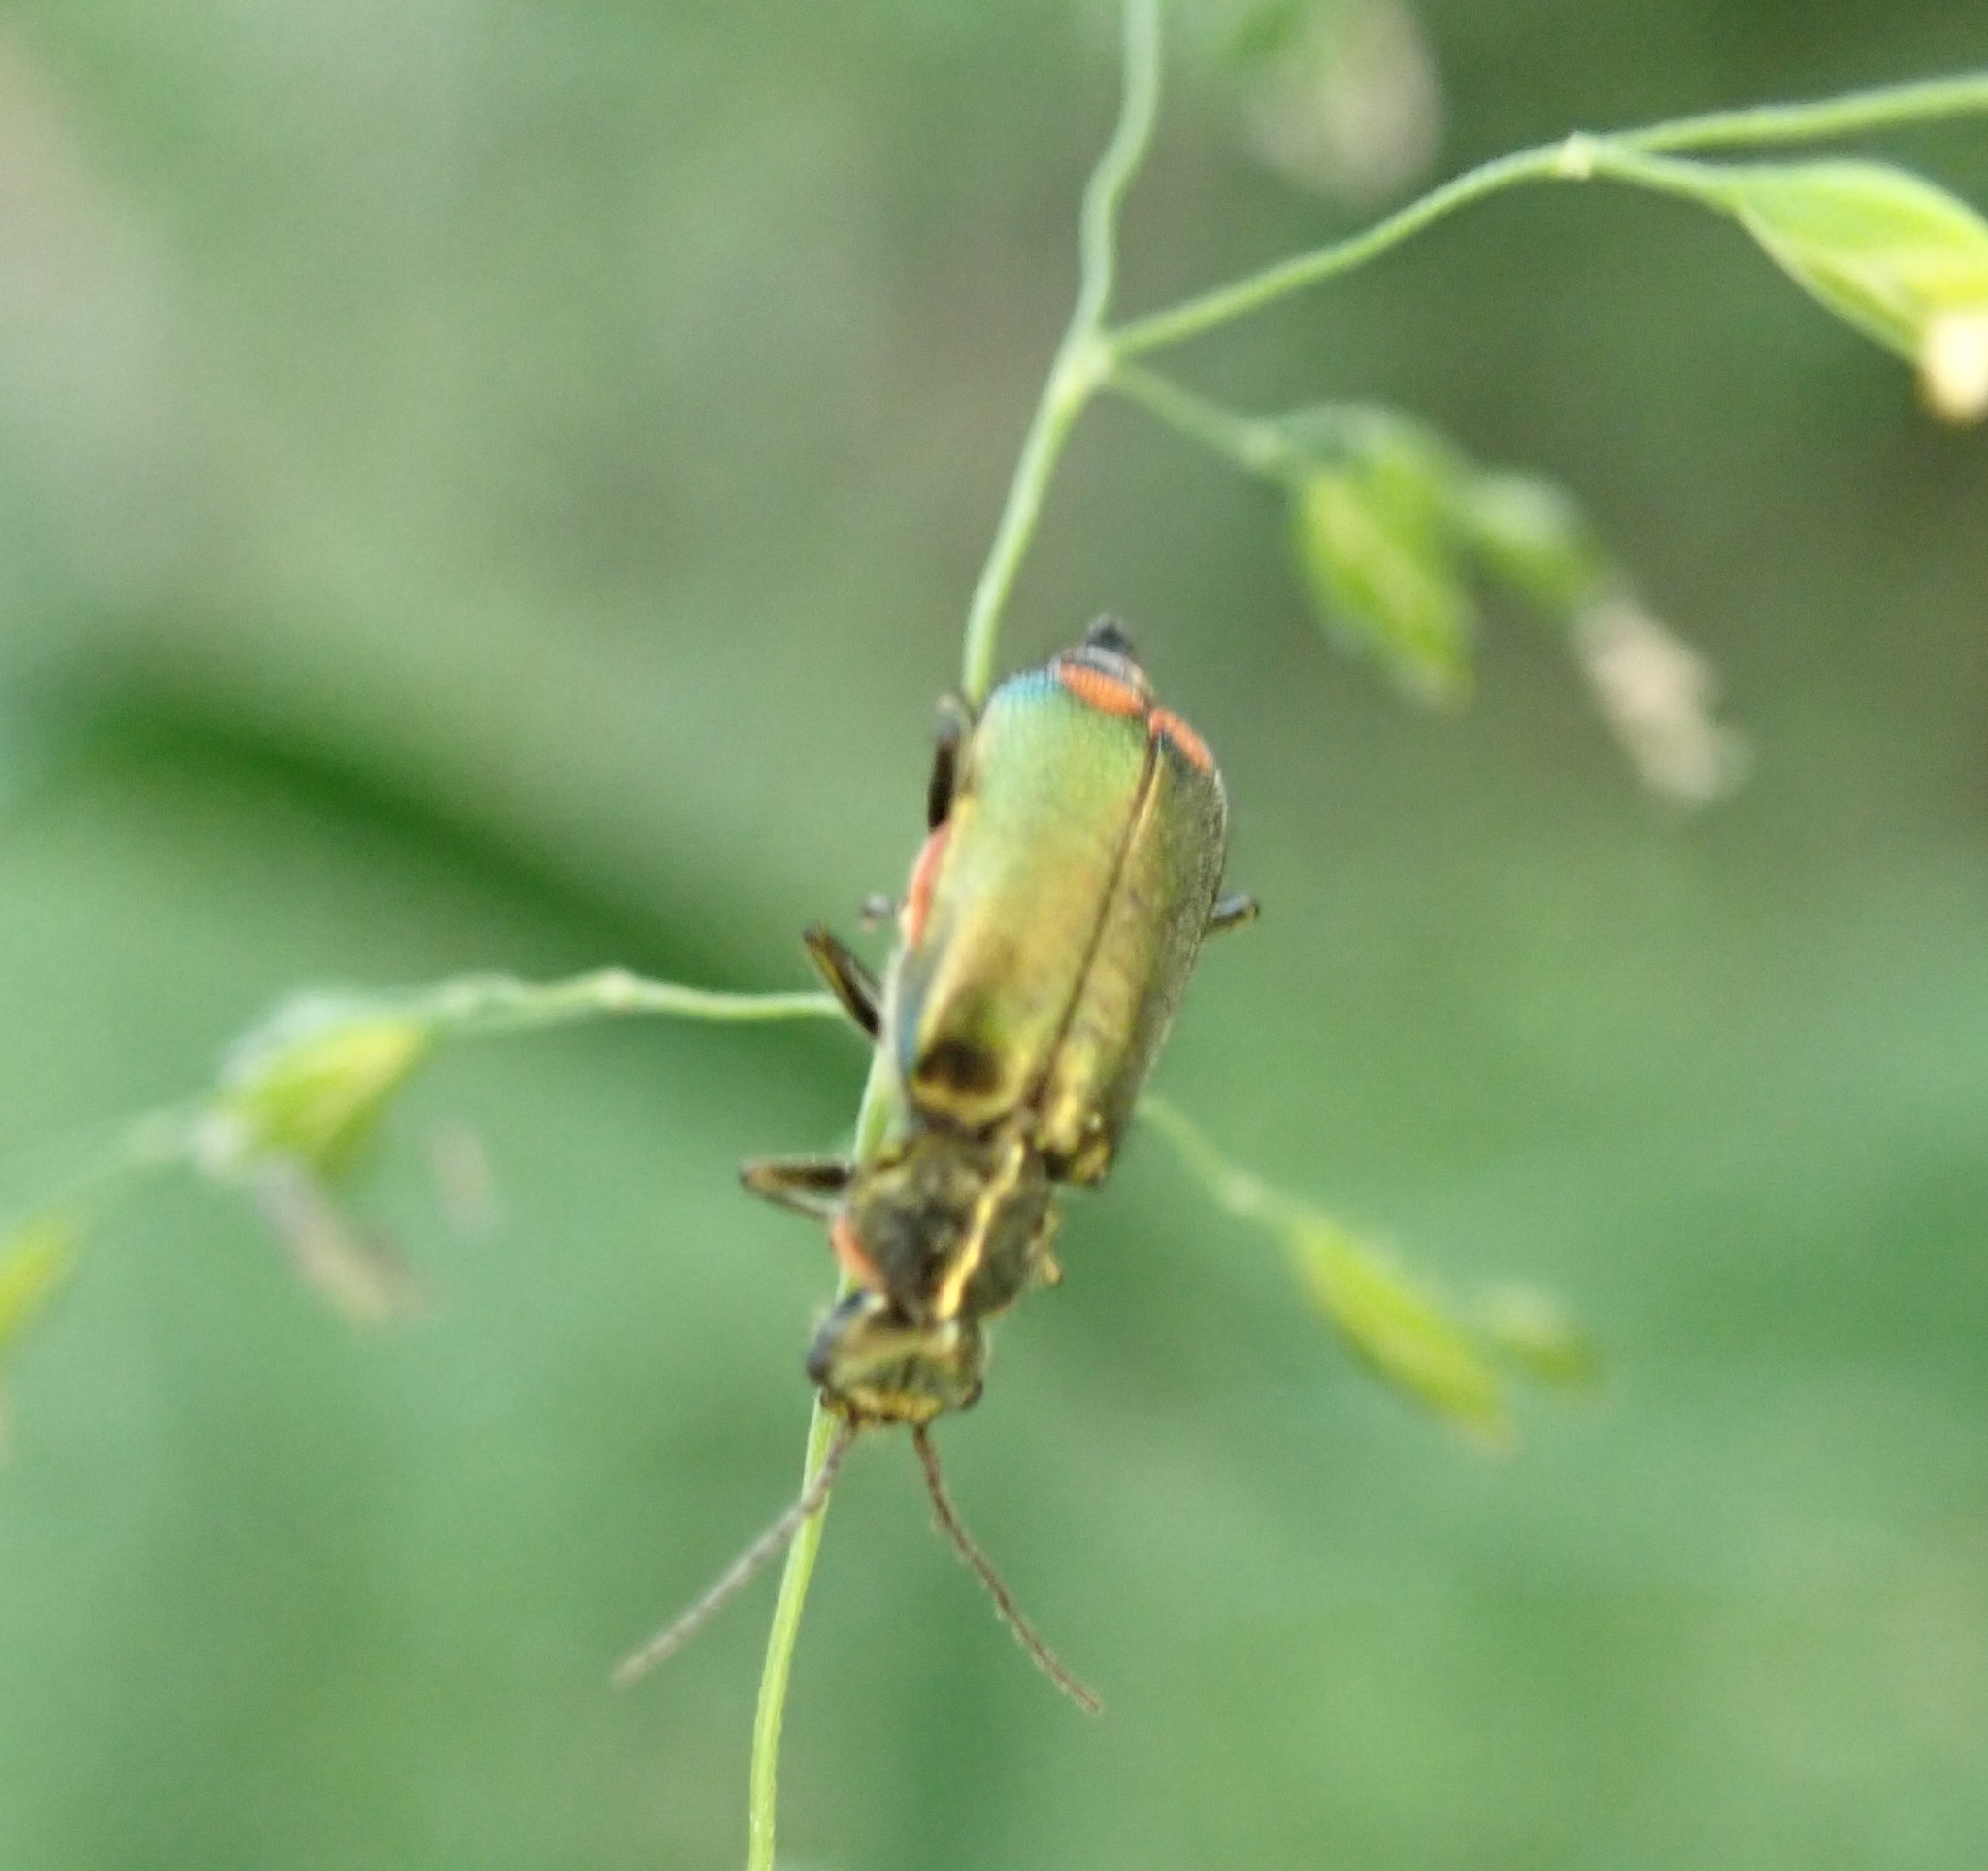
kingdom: Animalia
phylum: Arthropoda
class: Insecta
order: Coleoptera
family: Melyridae
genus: Malachius
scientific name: Malachius bipustulatus
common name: Malachite beetle
